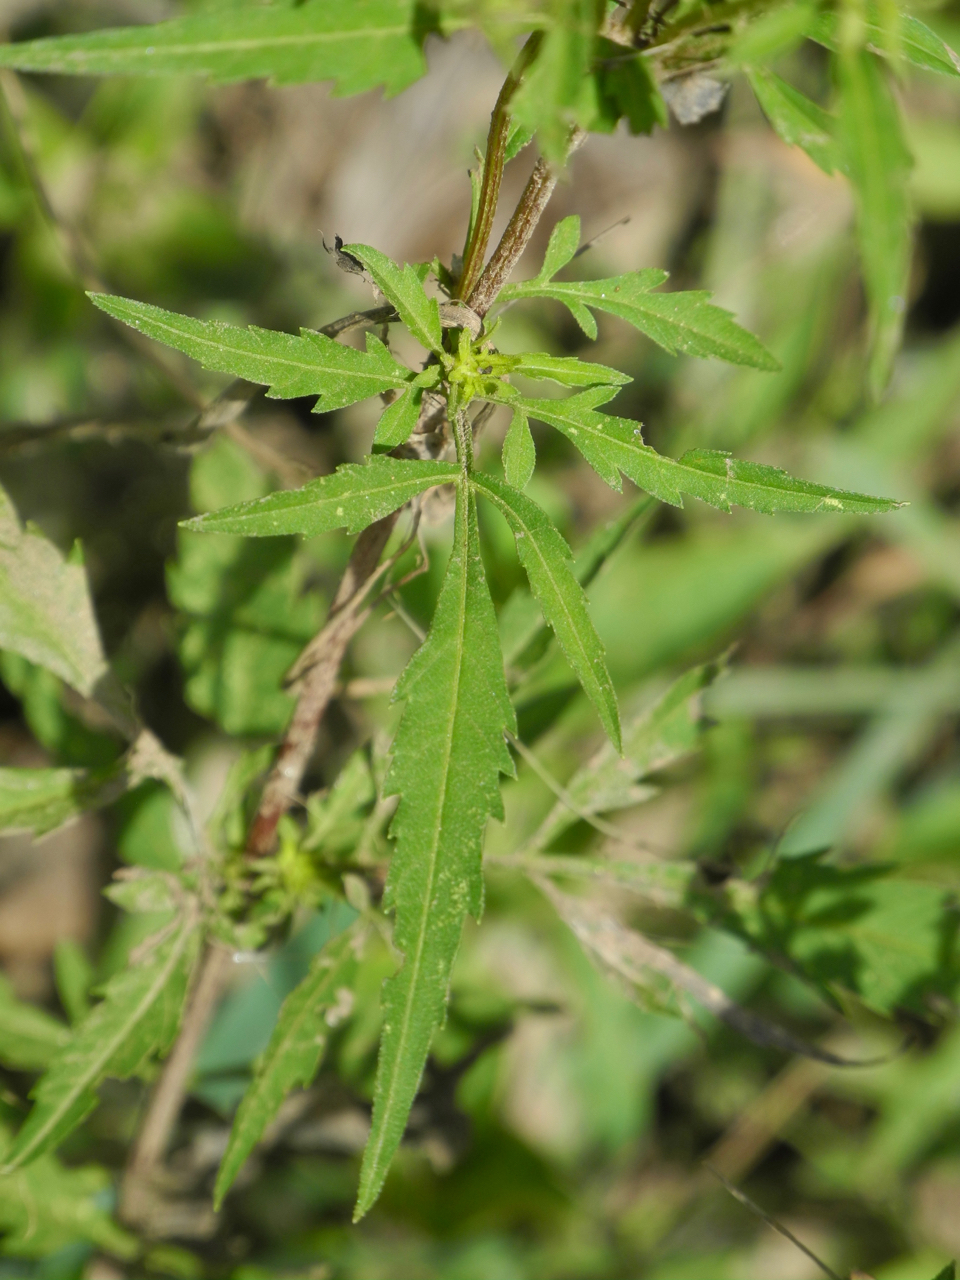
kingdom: Plantae
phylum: Tracheophyta
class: Magnoliopsida
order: Asterales
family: Asteraceae
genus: Bidens
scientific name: Bidens polylepis
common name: Awnless beggarticks
